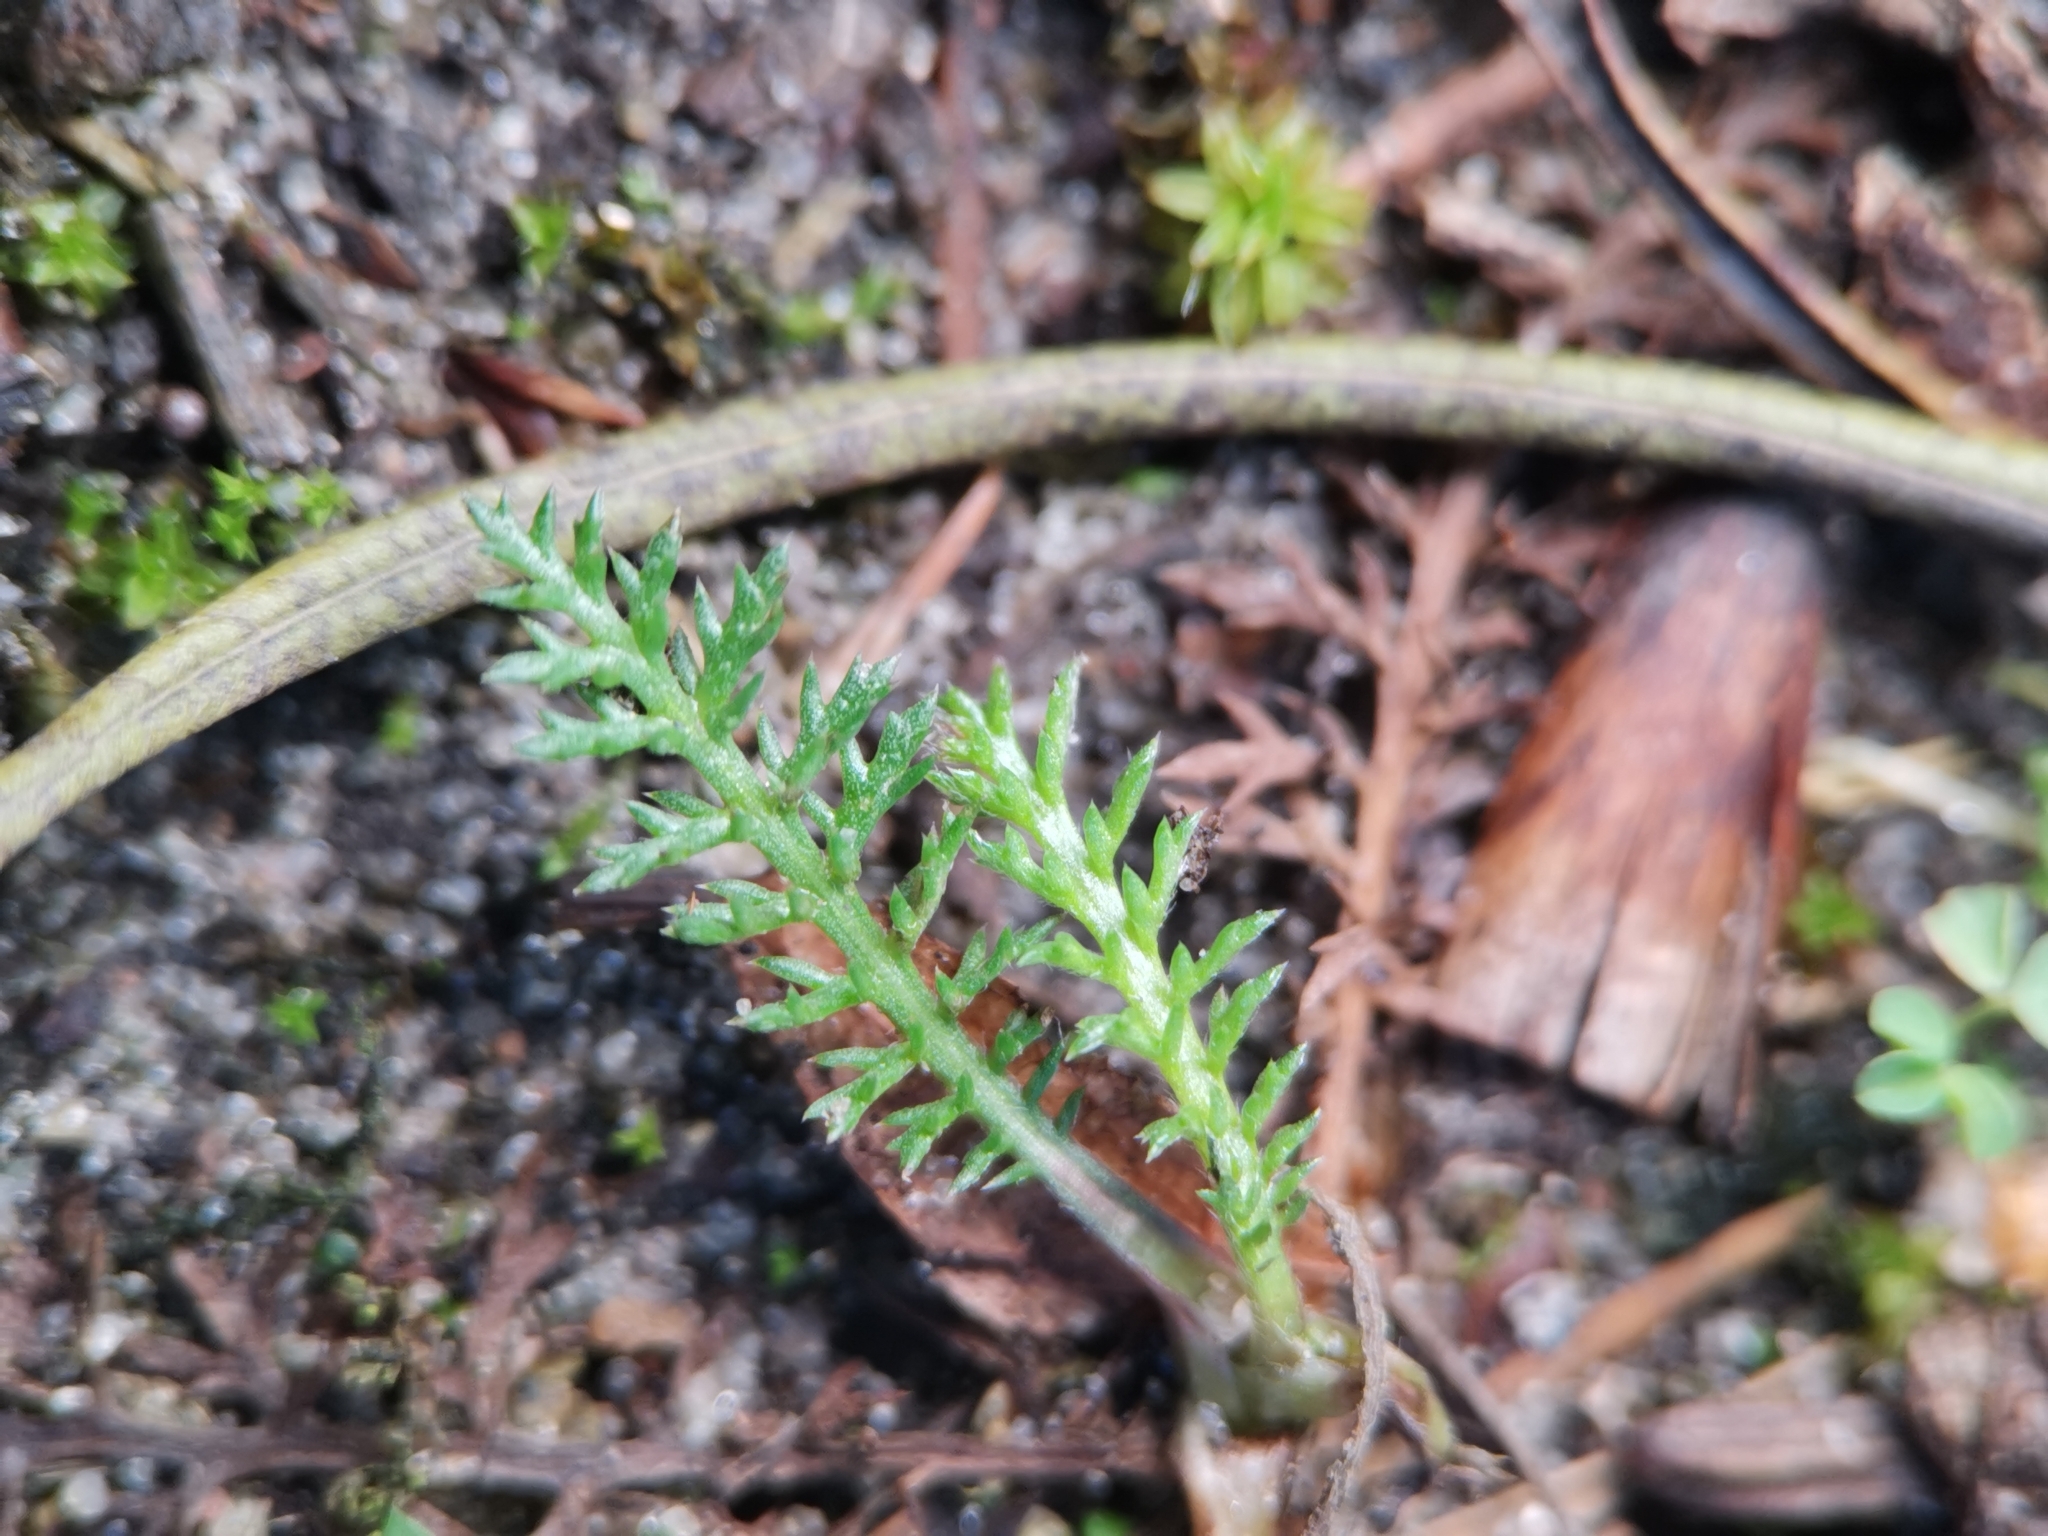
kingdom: Plantae
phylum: Tracheophyta
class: Magnoliopsida
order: Asterales
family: Asteraceae
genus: Achillea
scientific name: Achillea millefolium
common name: Yarrow
